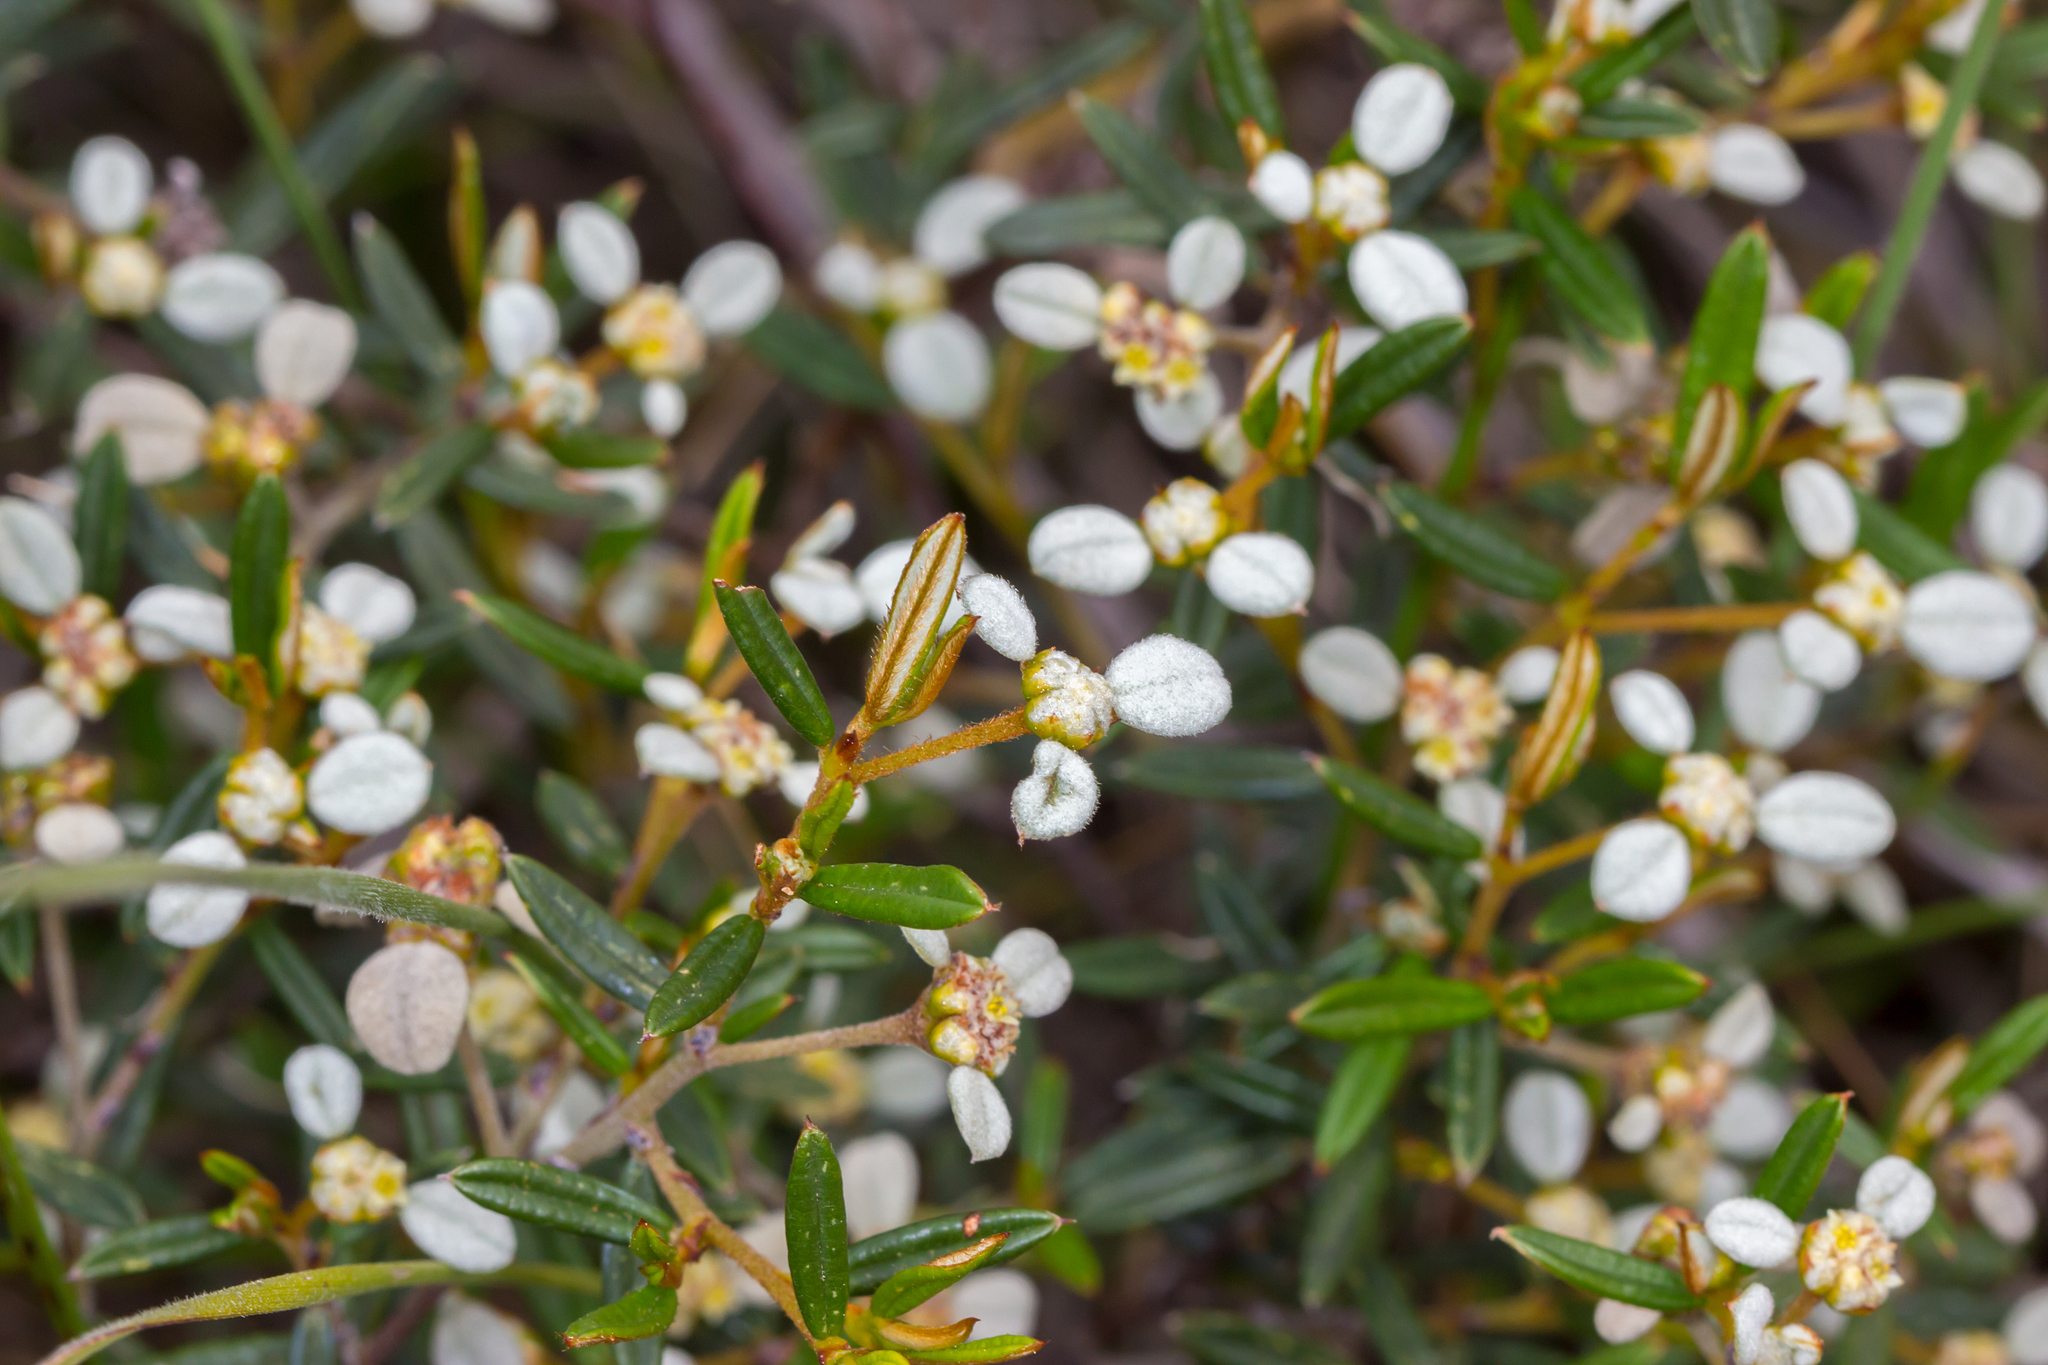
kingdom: Plantae
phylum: Tracheophyta
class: Magnoliopsida
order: Rosales
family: Rhamnaceae
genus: Spyridium
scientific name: Spyridium vexilliferum
